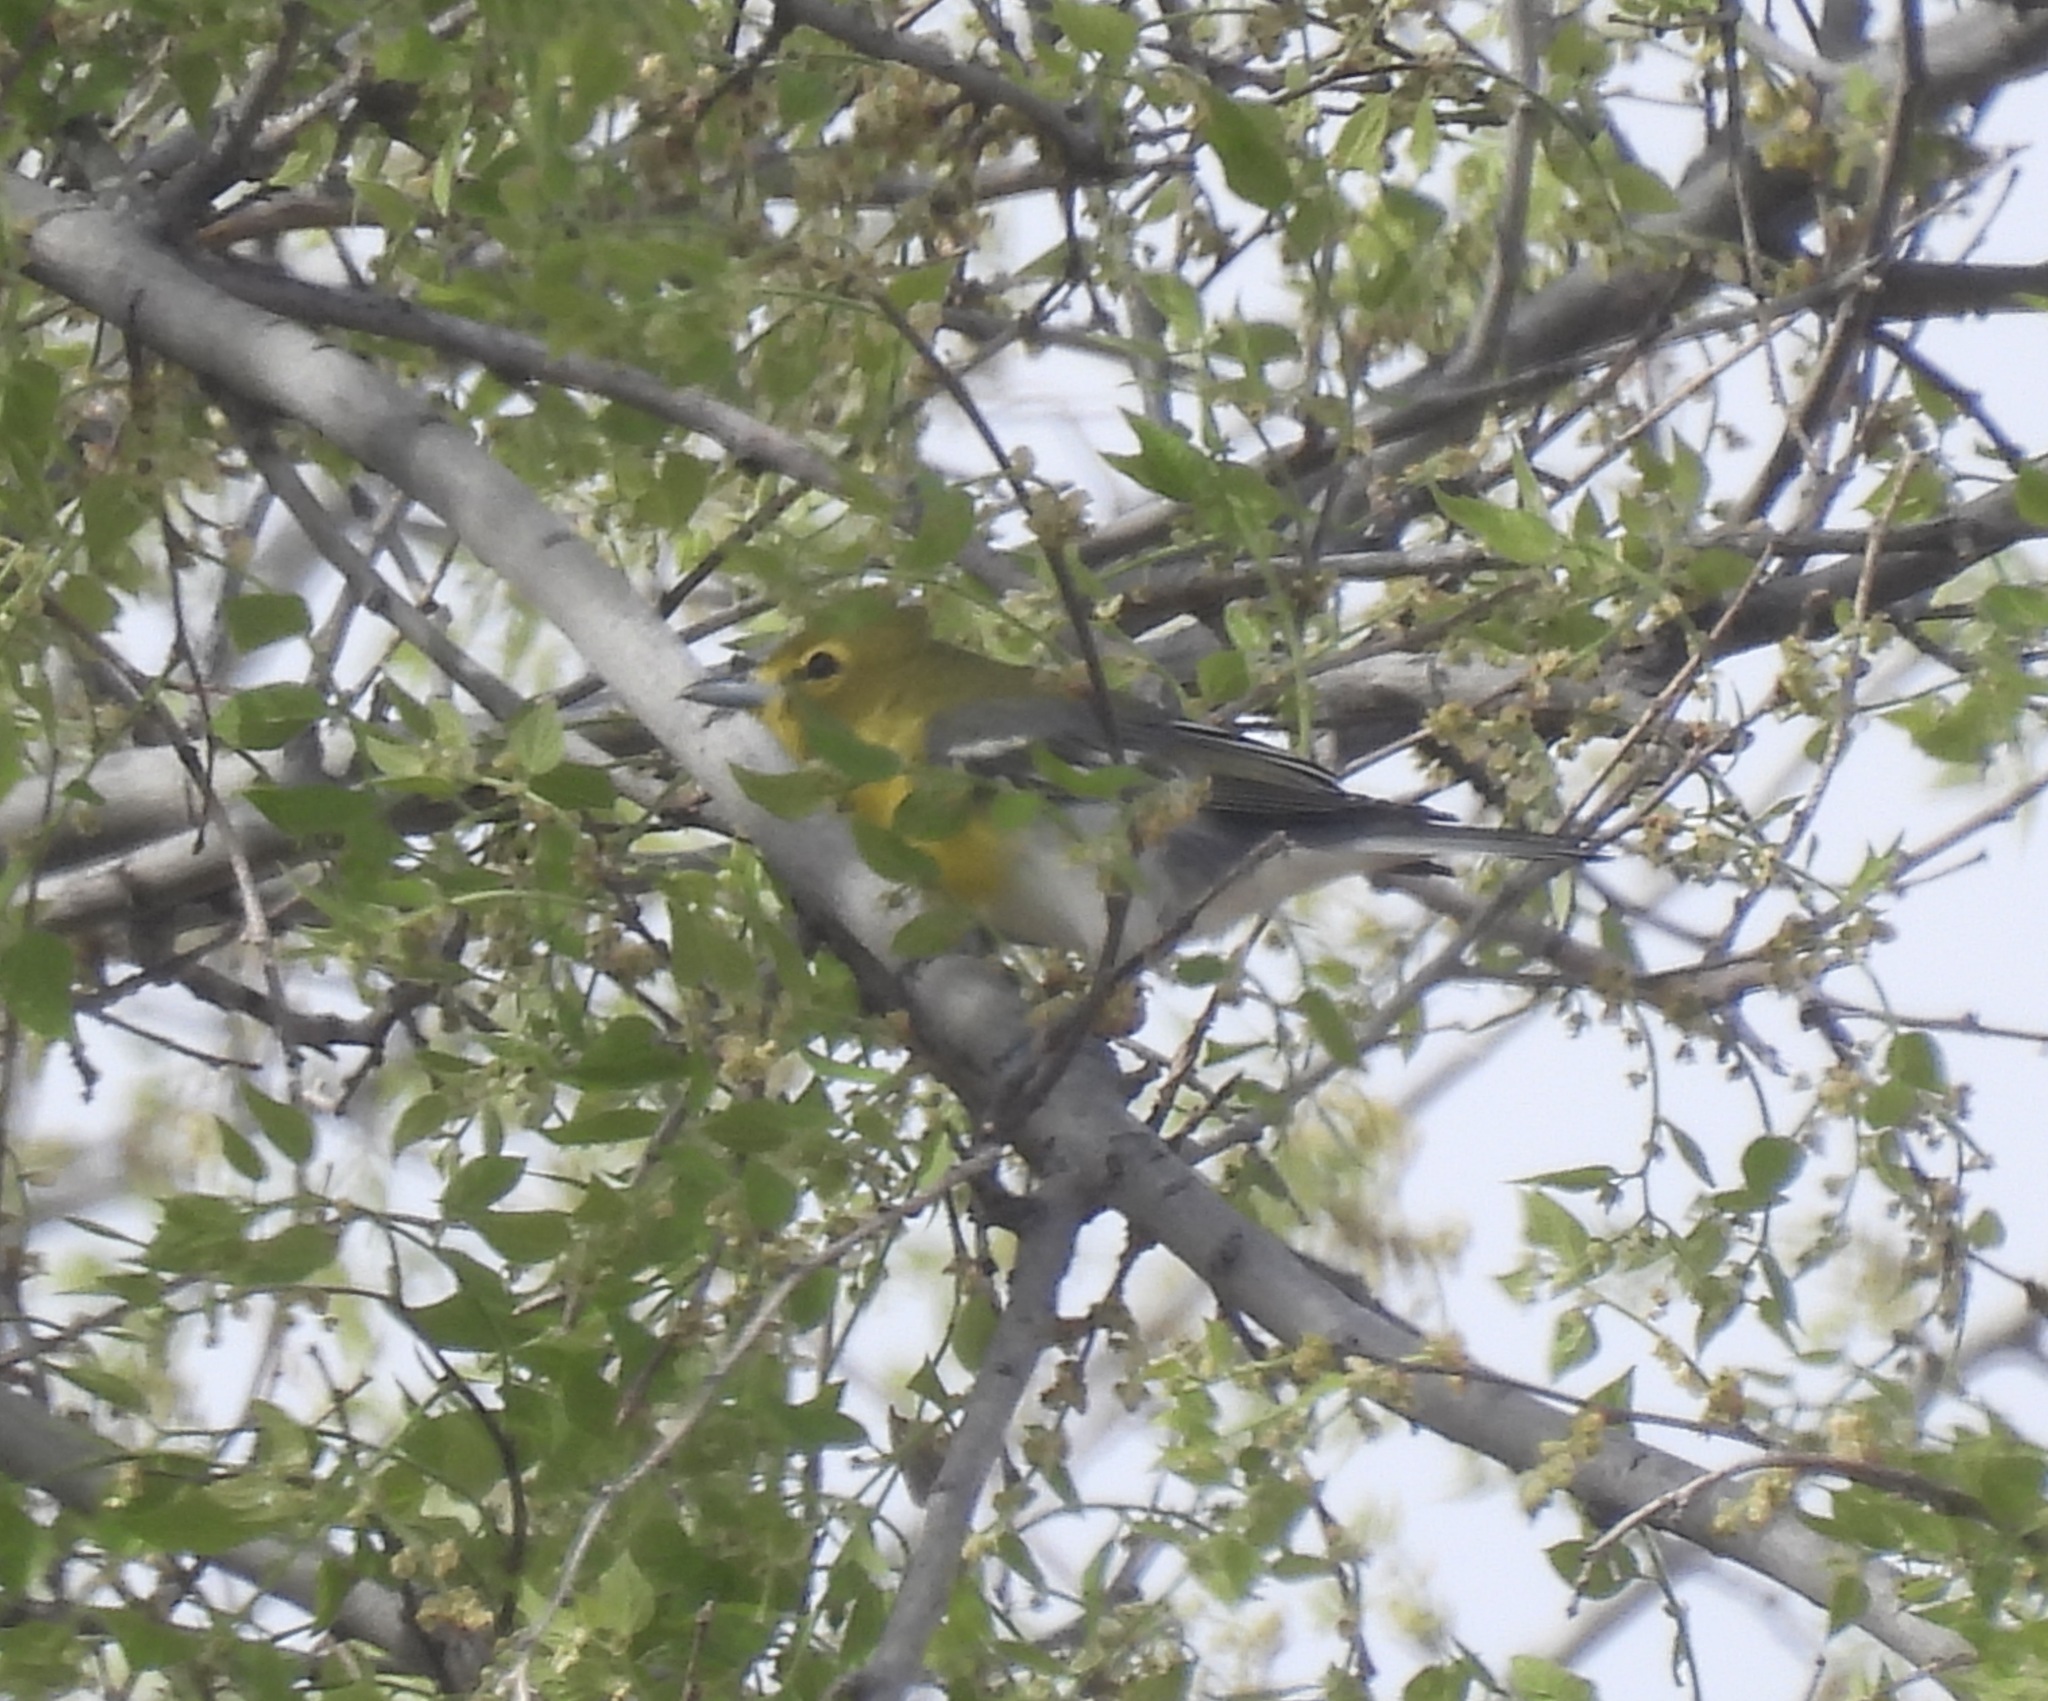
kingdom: Animalia
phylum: Chordata
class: Aves
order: Passeriformes
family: Vireonidae
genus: Vireo
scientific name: Vireo flavifrons
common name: Yellow-throated vireo
